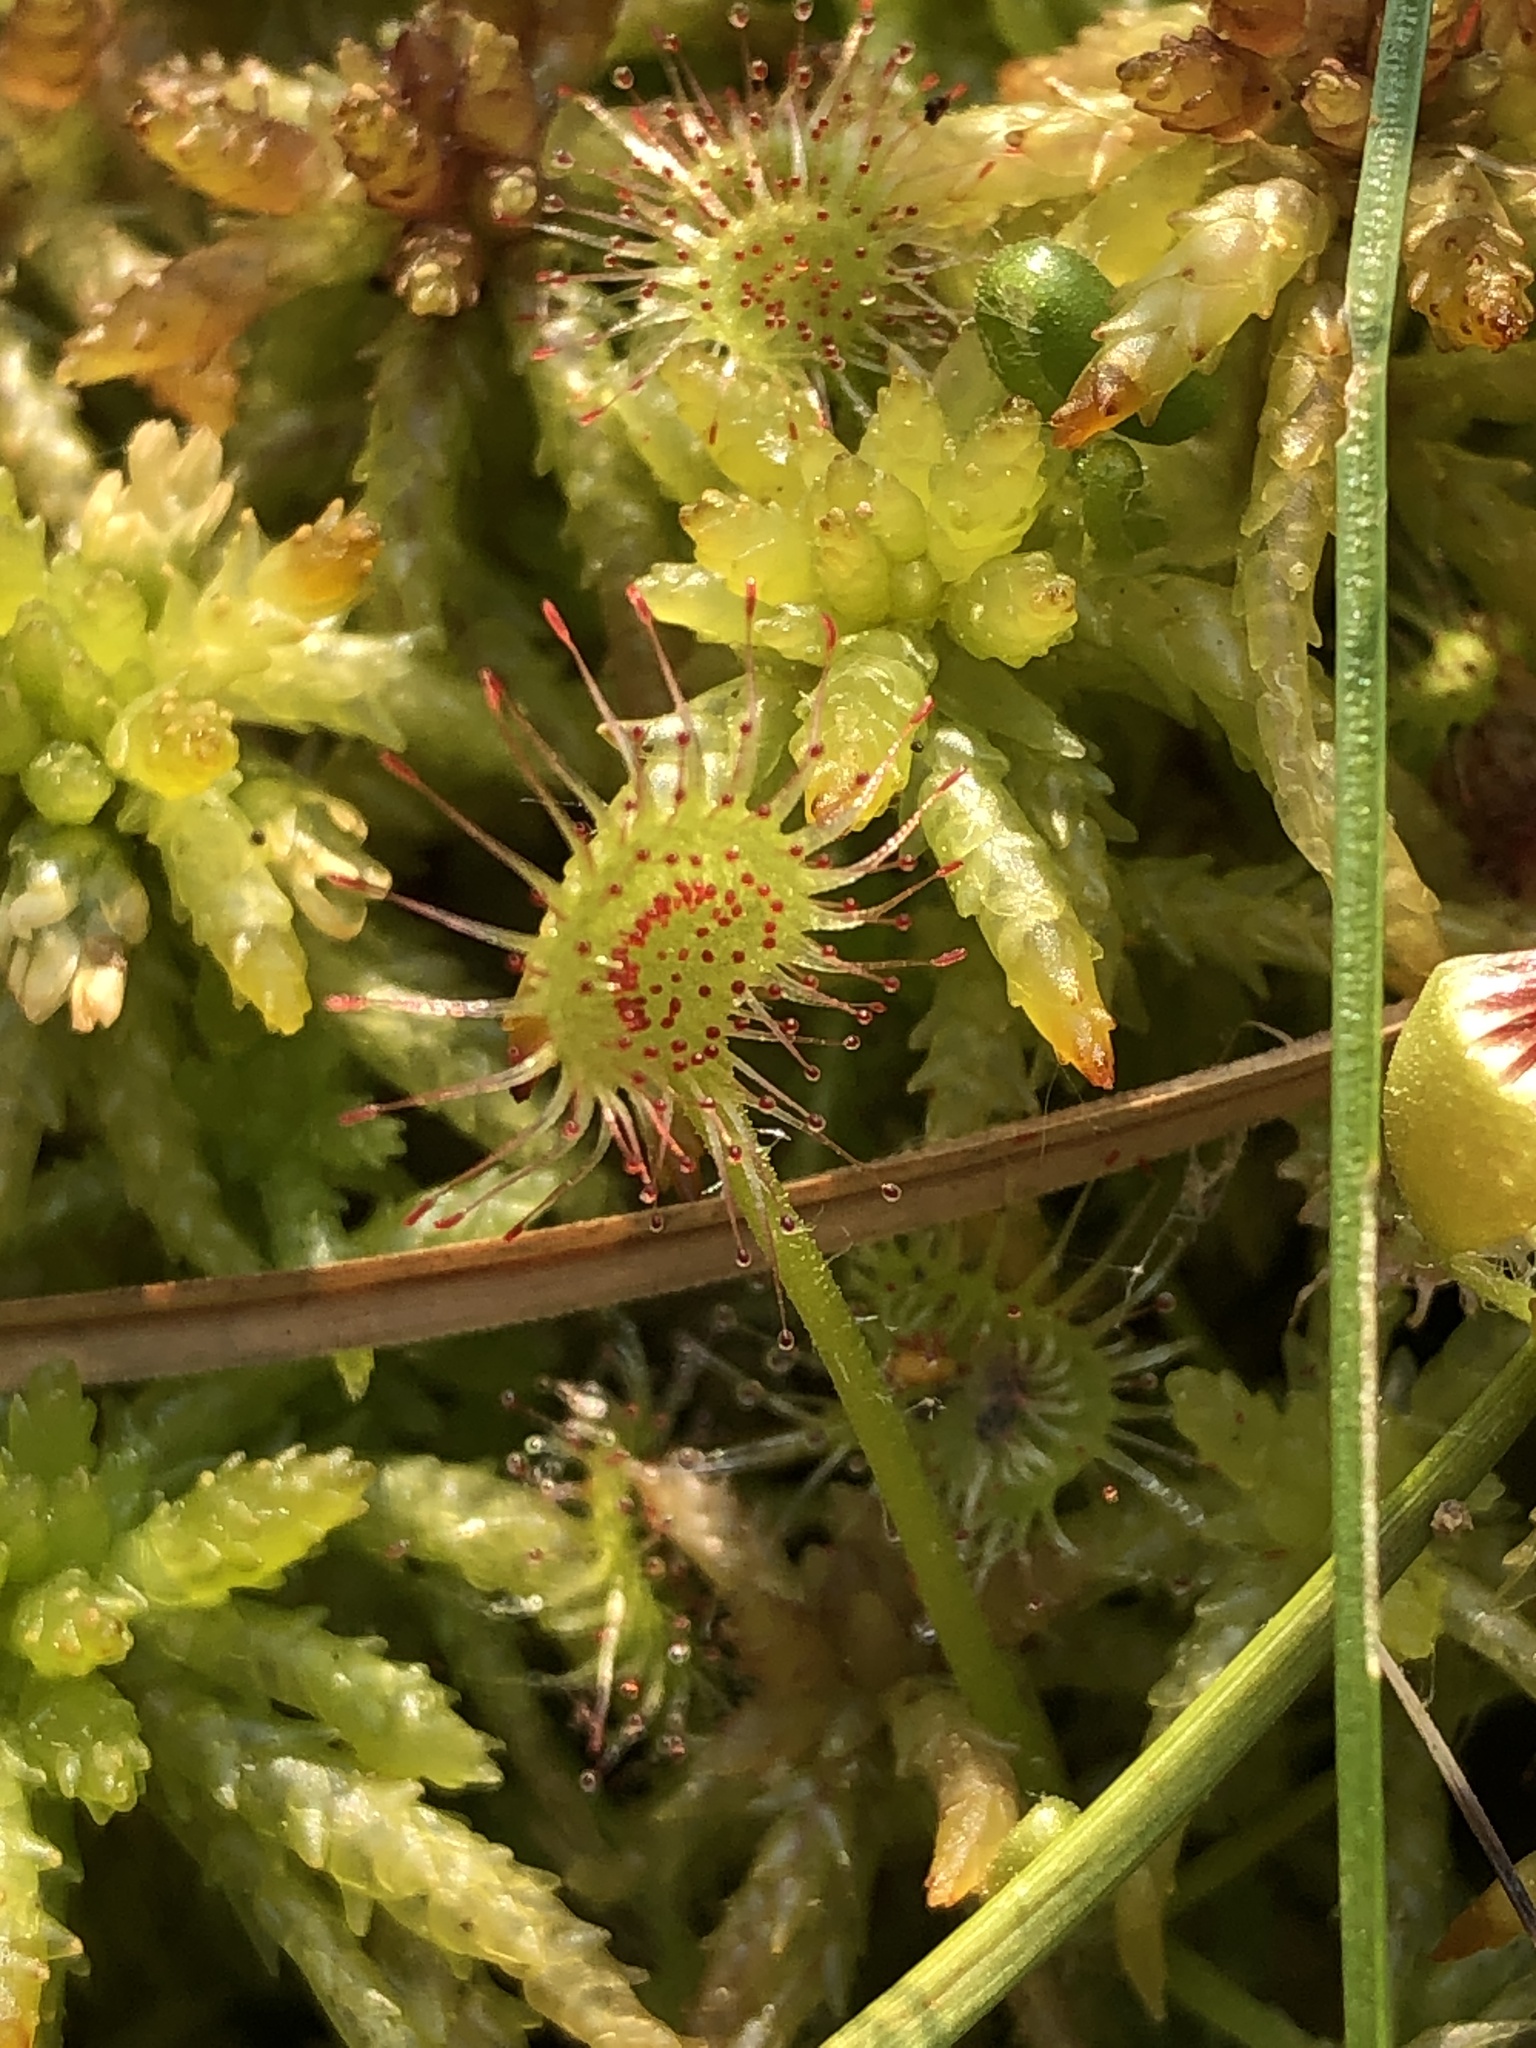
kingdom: Plantae
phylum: Tracheophyta
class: Magnoliopsida
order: Caryophyllales
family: Droseraceae
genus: Drosera
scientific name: Drosera rotundifolia
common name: Round-leaved sundew
